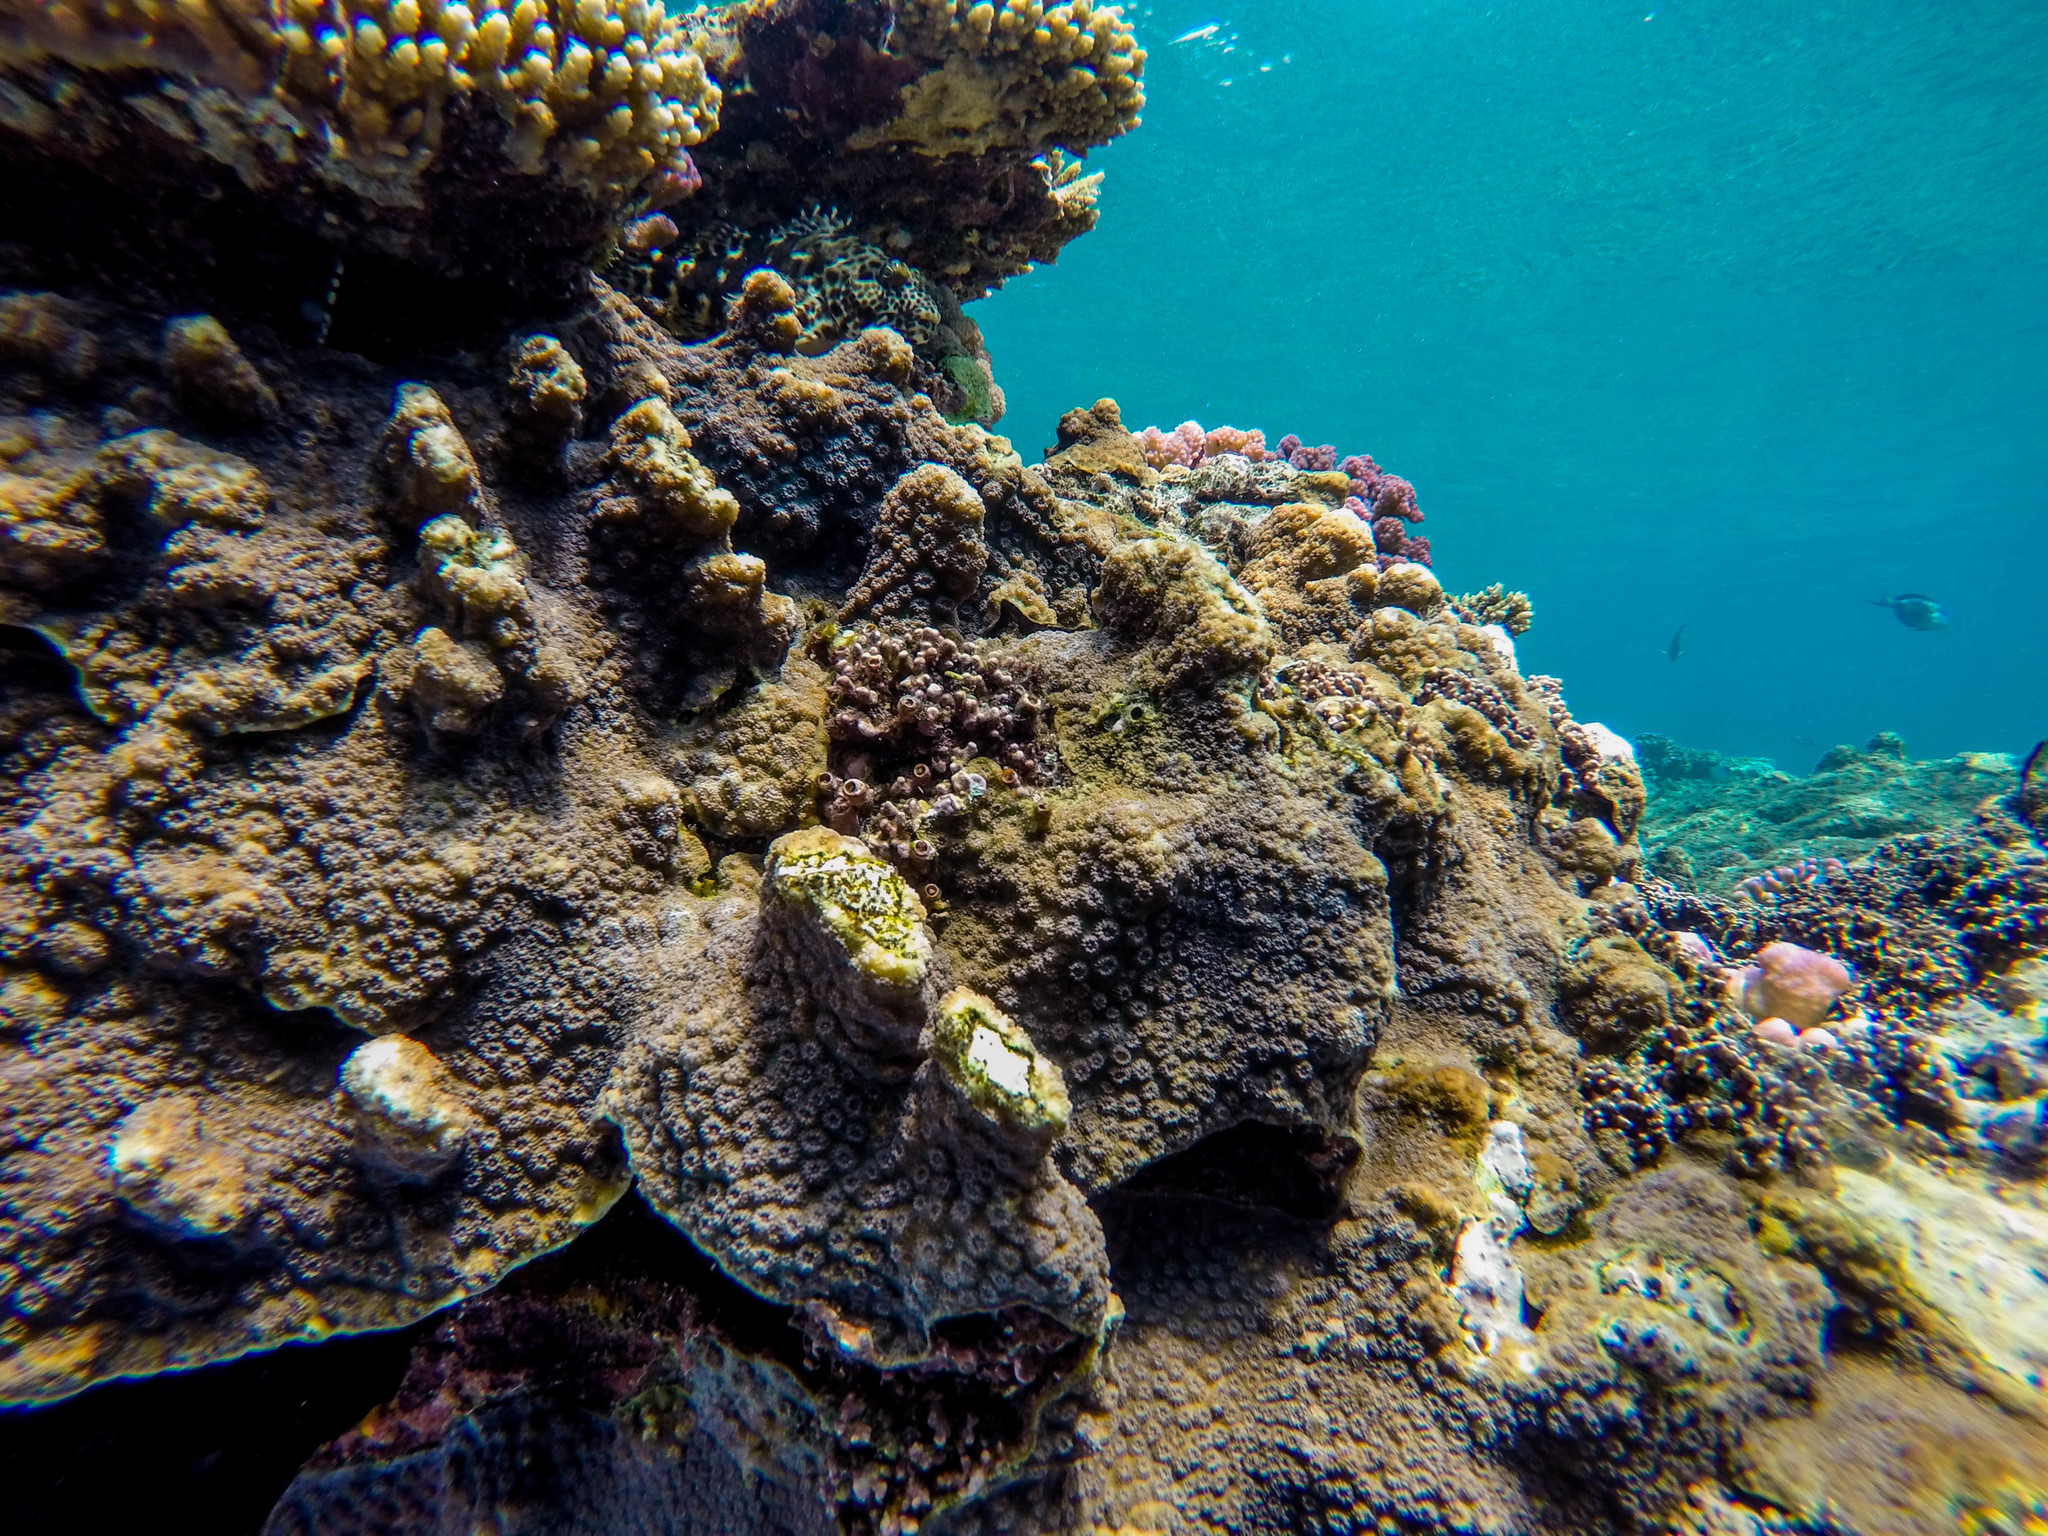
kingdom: Animalia
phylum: Cnidaria
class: Anthozoa
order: Scleractinia
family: Merulinidae
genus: Echinopora
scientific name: Echinopora hirsutissima
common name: Hedgehog coral
